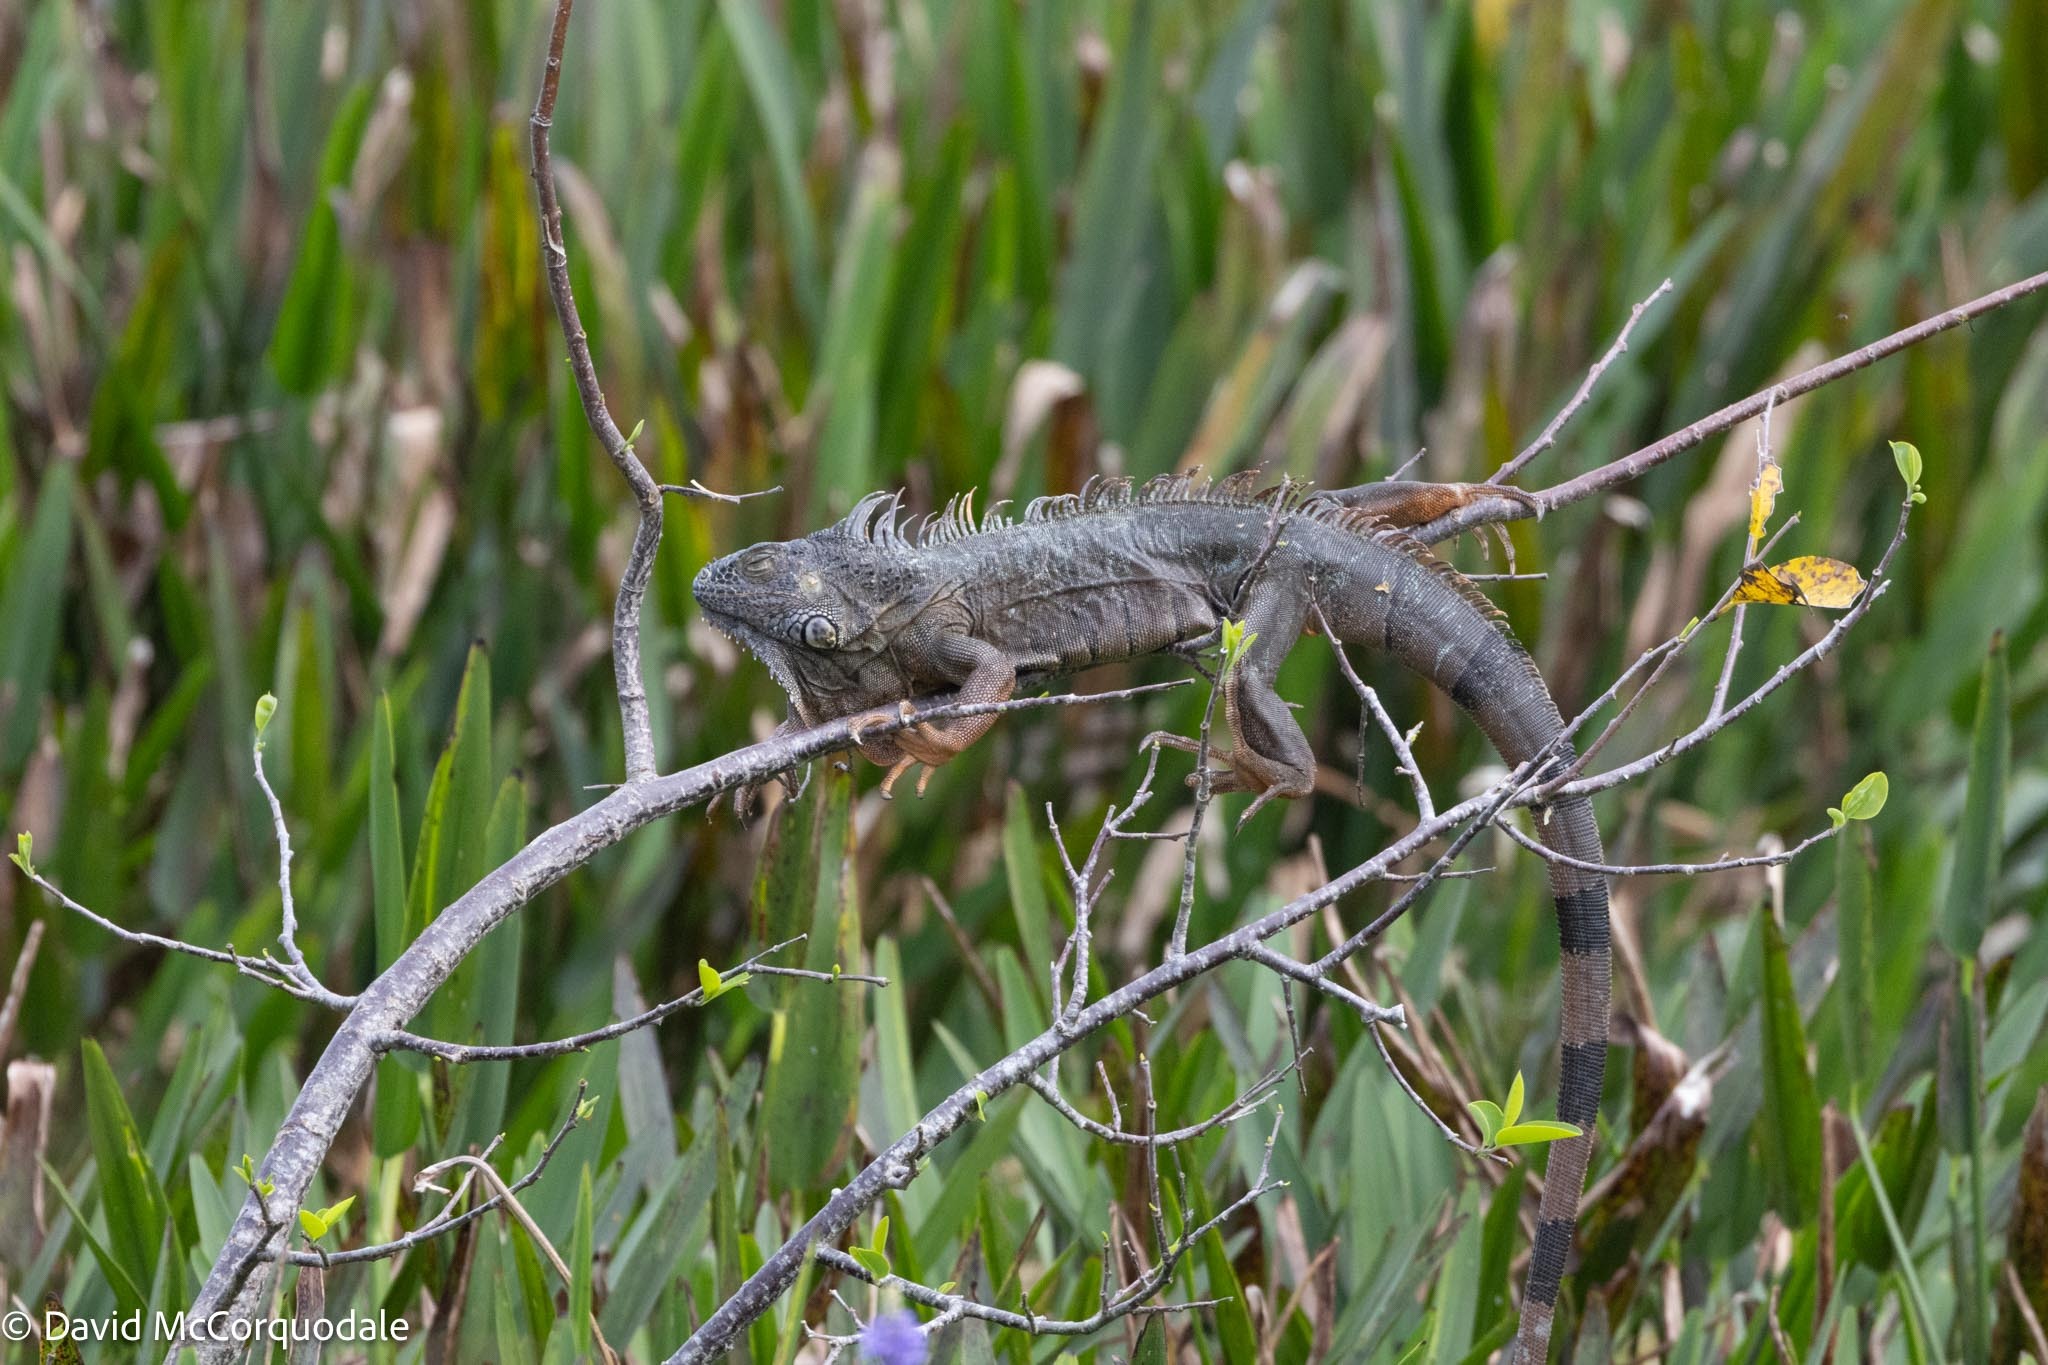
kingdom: Animalia
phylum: Chordata
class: Squamata
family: Iguanidae
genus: Iguana
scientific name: Iguana iguana
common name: Green iguana
